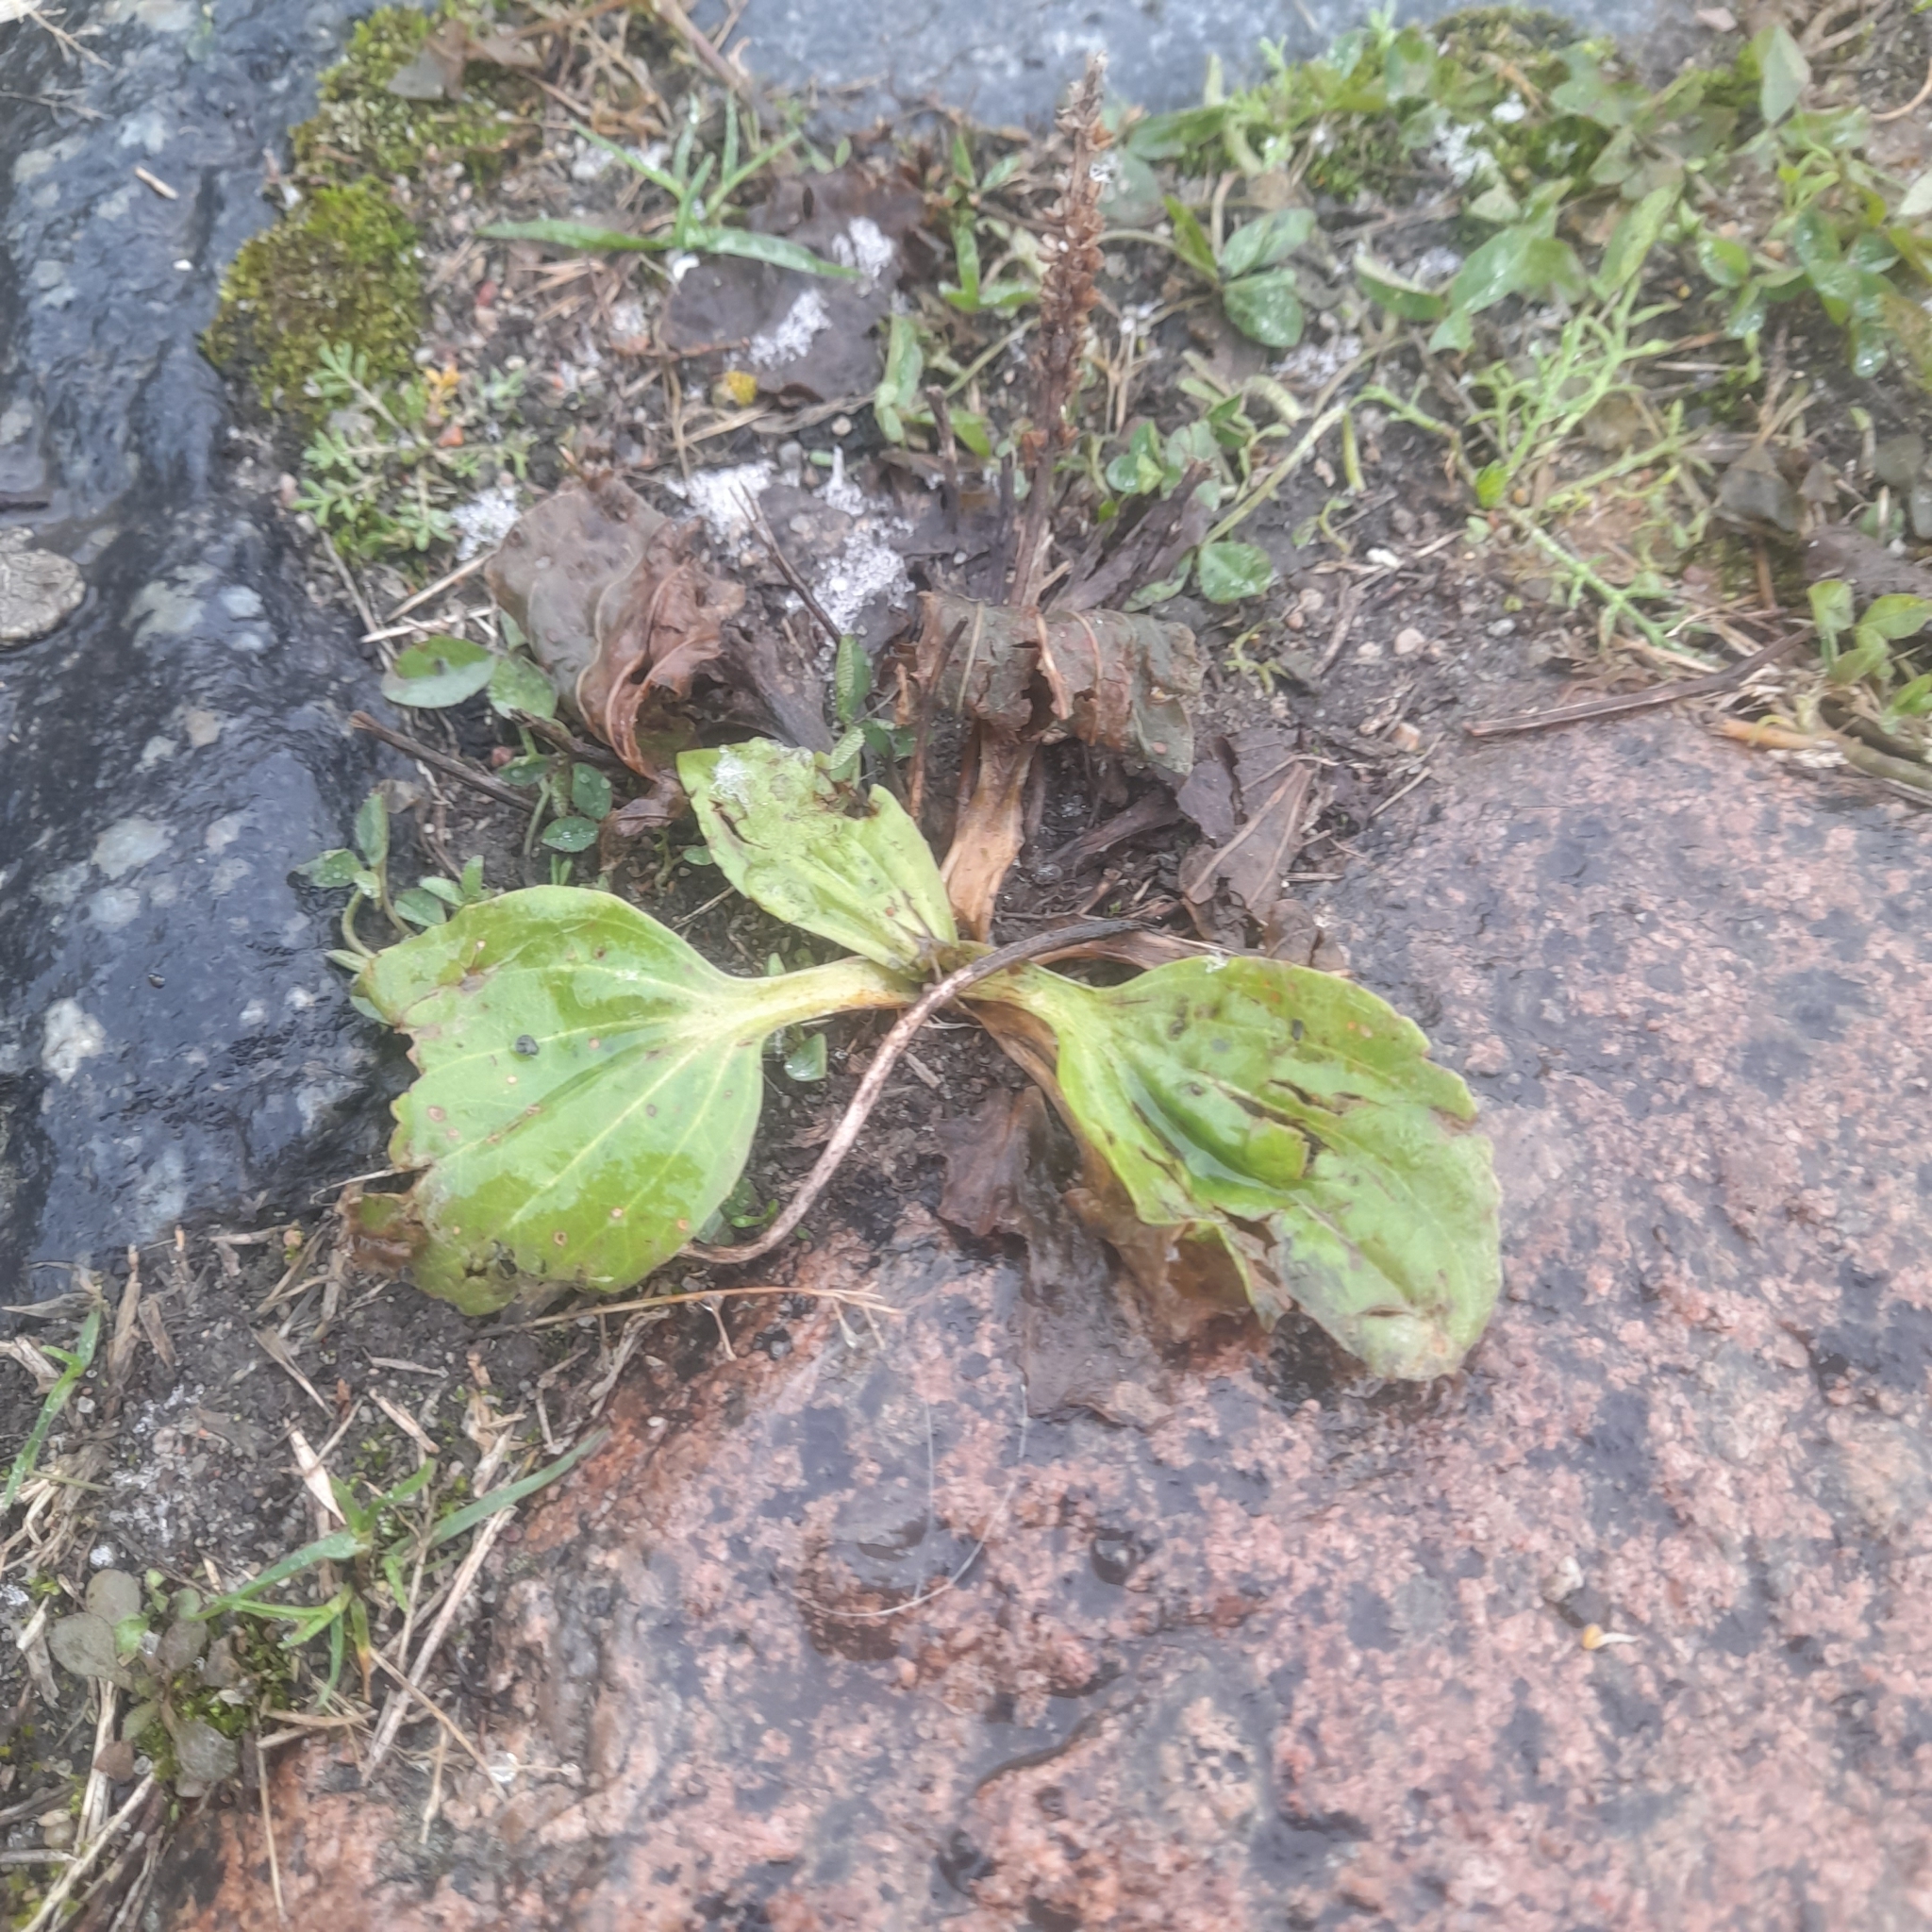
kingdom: Plantae
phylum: Tracheophyta
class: Magnoliopsida
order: Lamiales
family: Plantaginaceae
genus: Plantago
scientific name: Plantago major
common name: Common plantain
